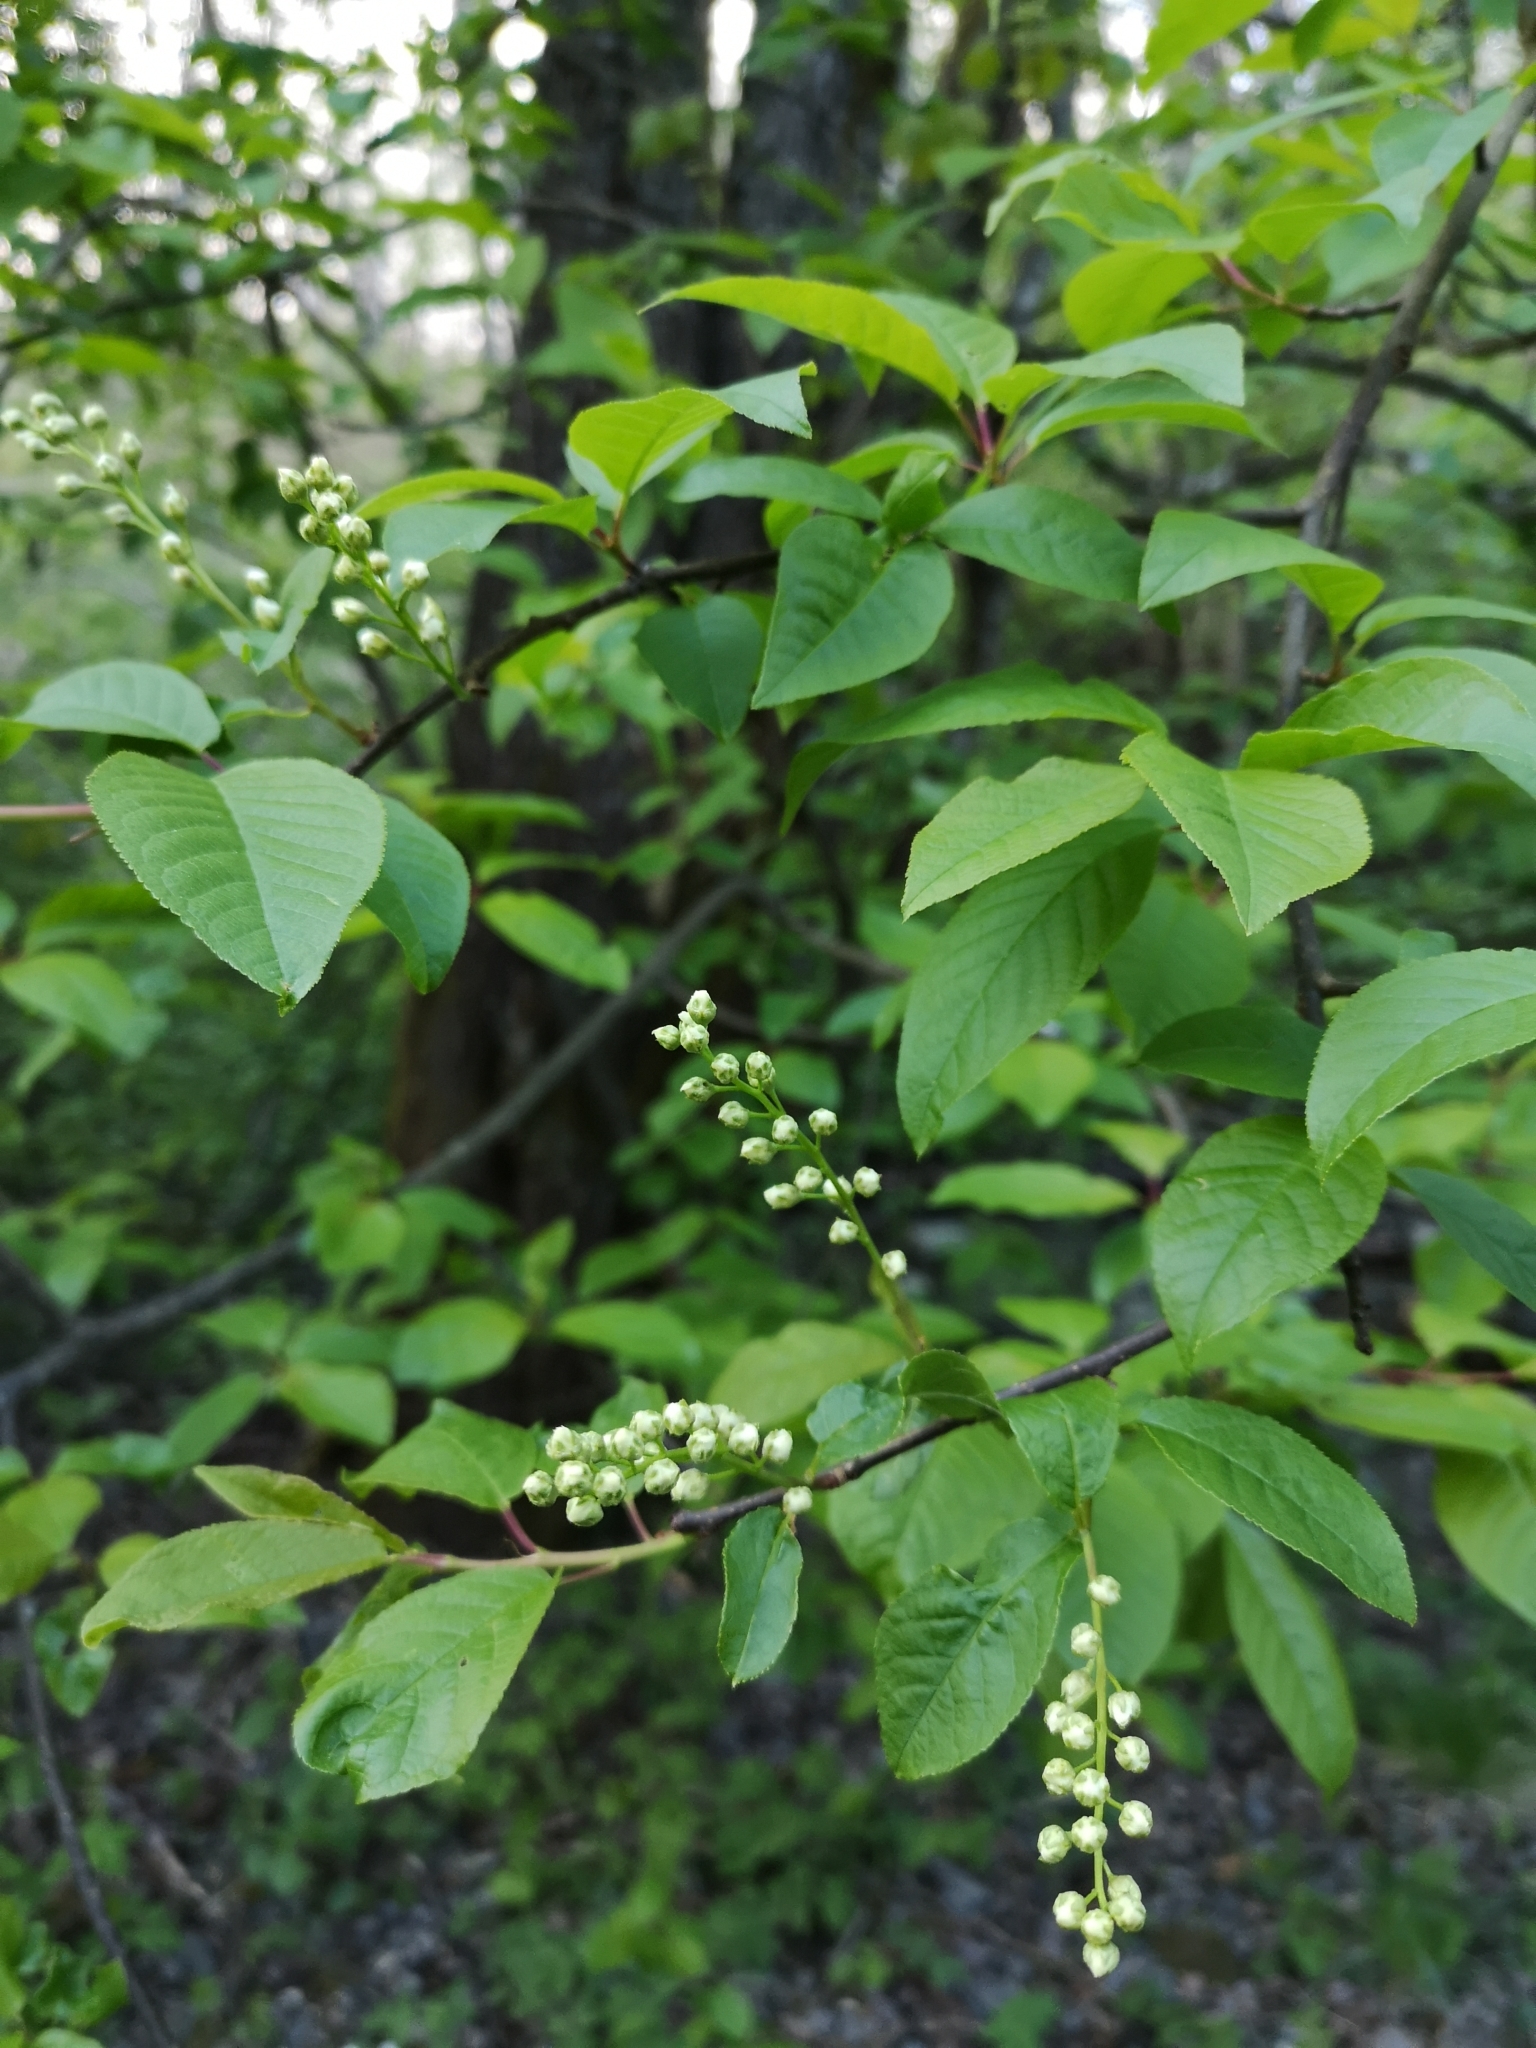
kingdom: Plantae
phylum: Tracheophyta
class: Magnoliopsida
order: Rosales
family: Rosaceae
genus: Prunus
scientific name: Prunus padus
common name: Bird cherry
